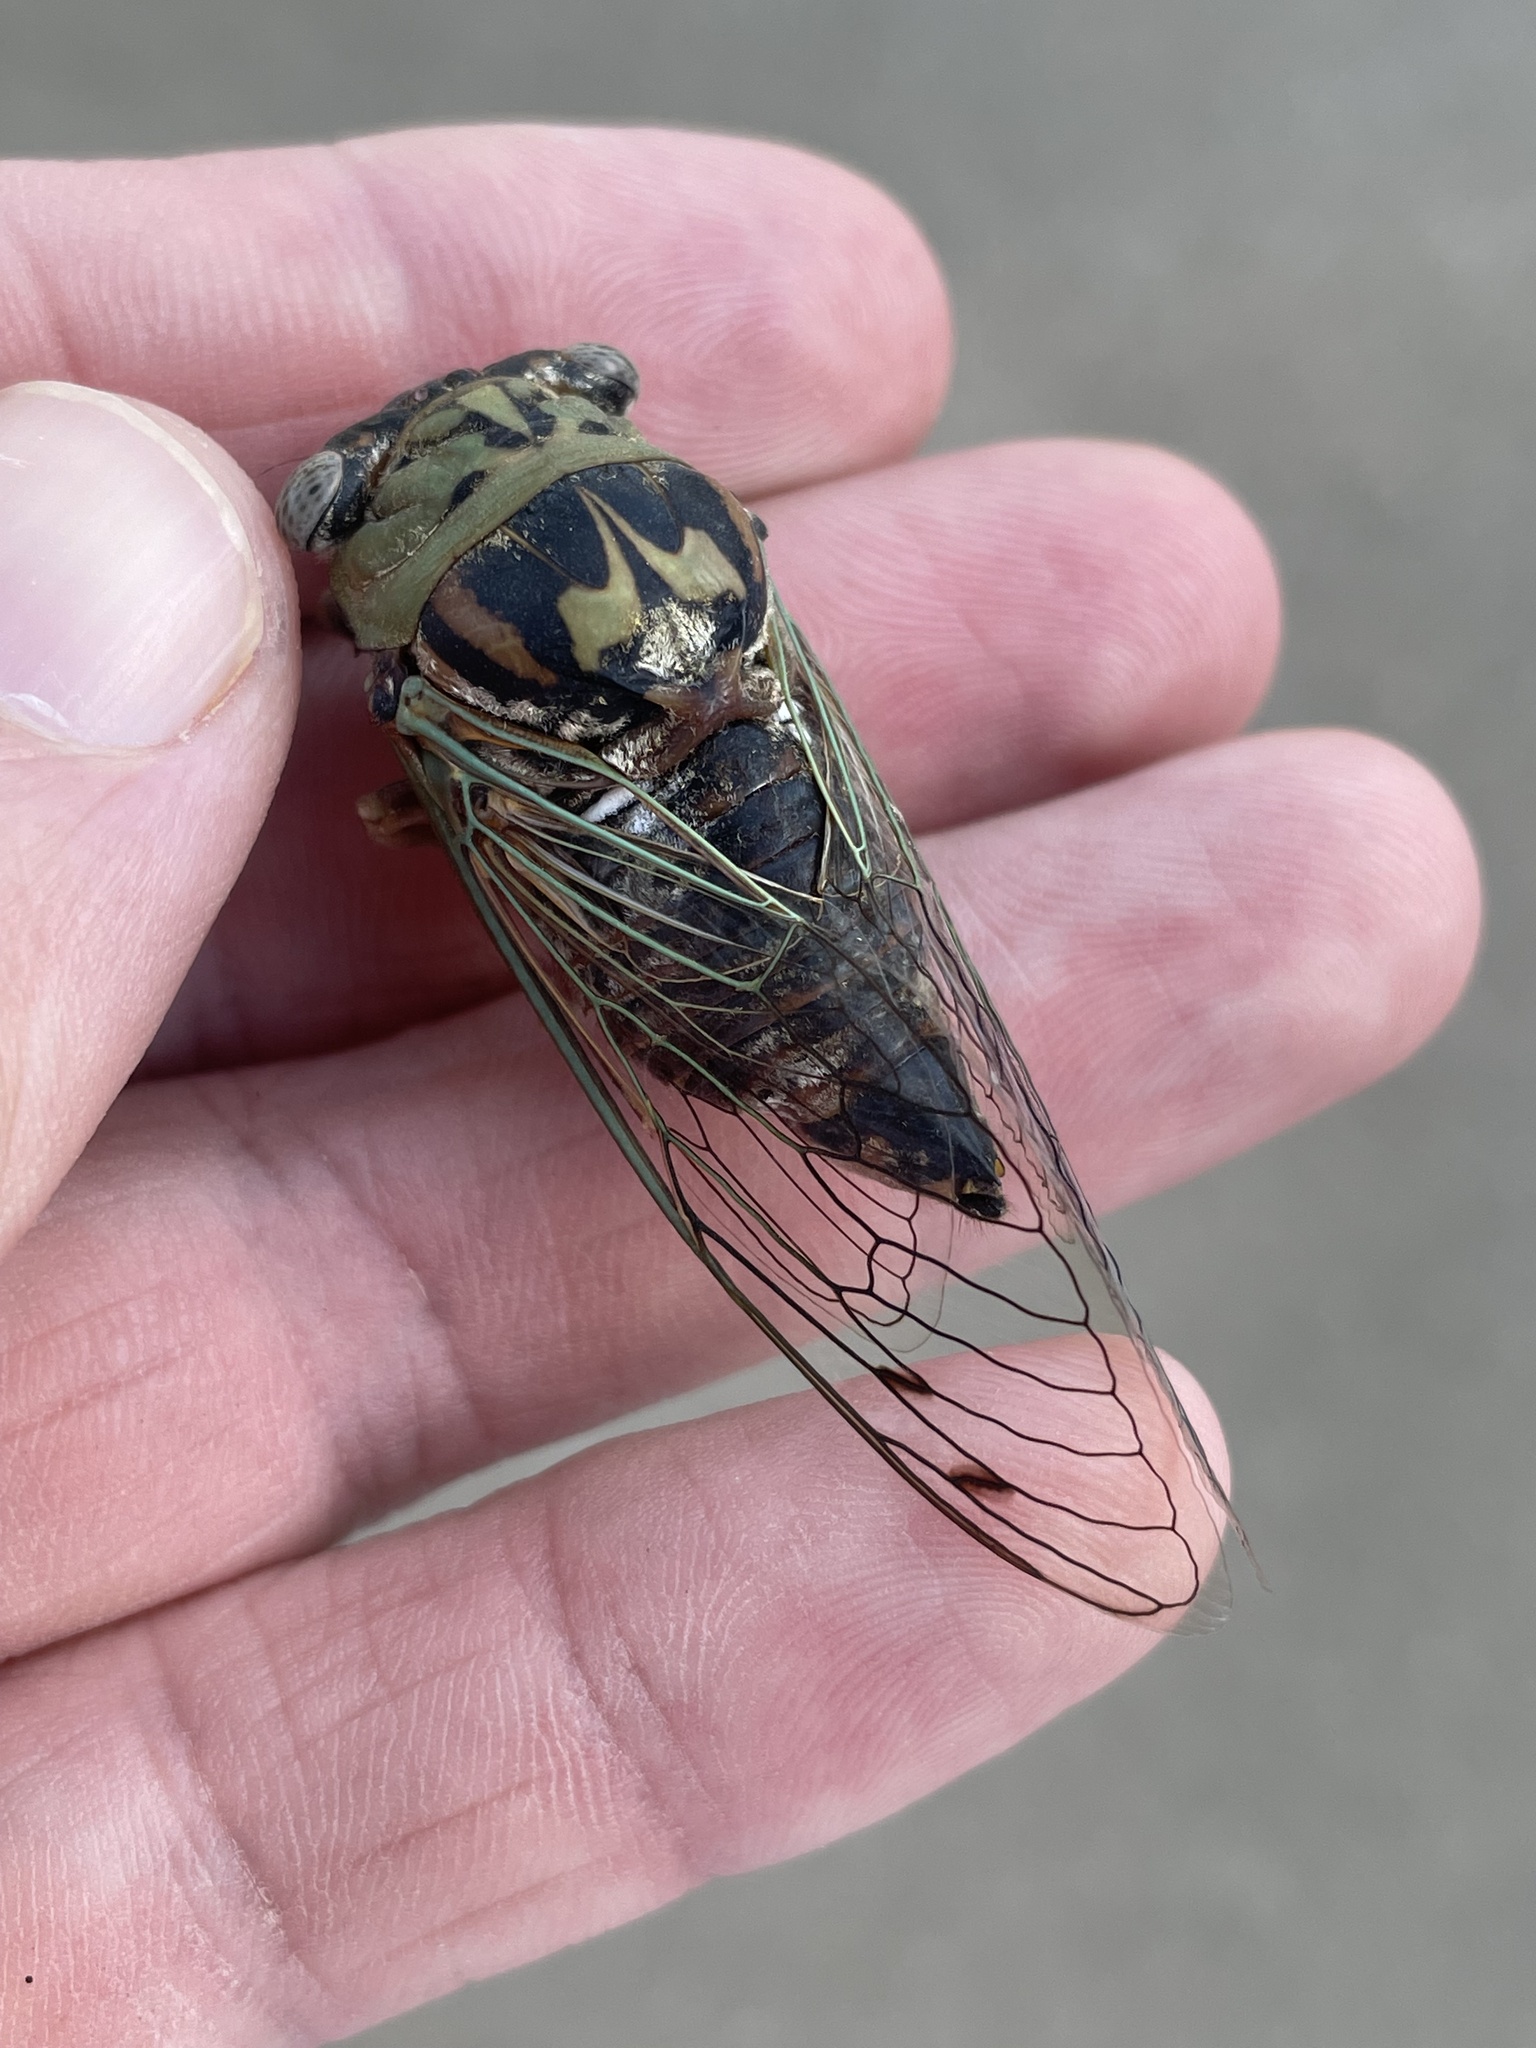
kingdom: Animalia
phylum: Arthropoda
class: Insecta
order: Hemiptera
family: Cicadidae
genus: Megatibicen
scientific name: Megatibicen resh
